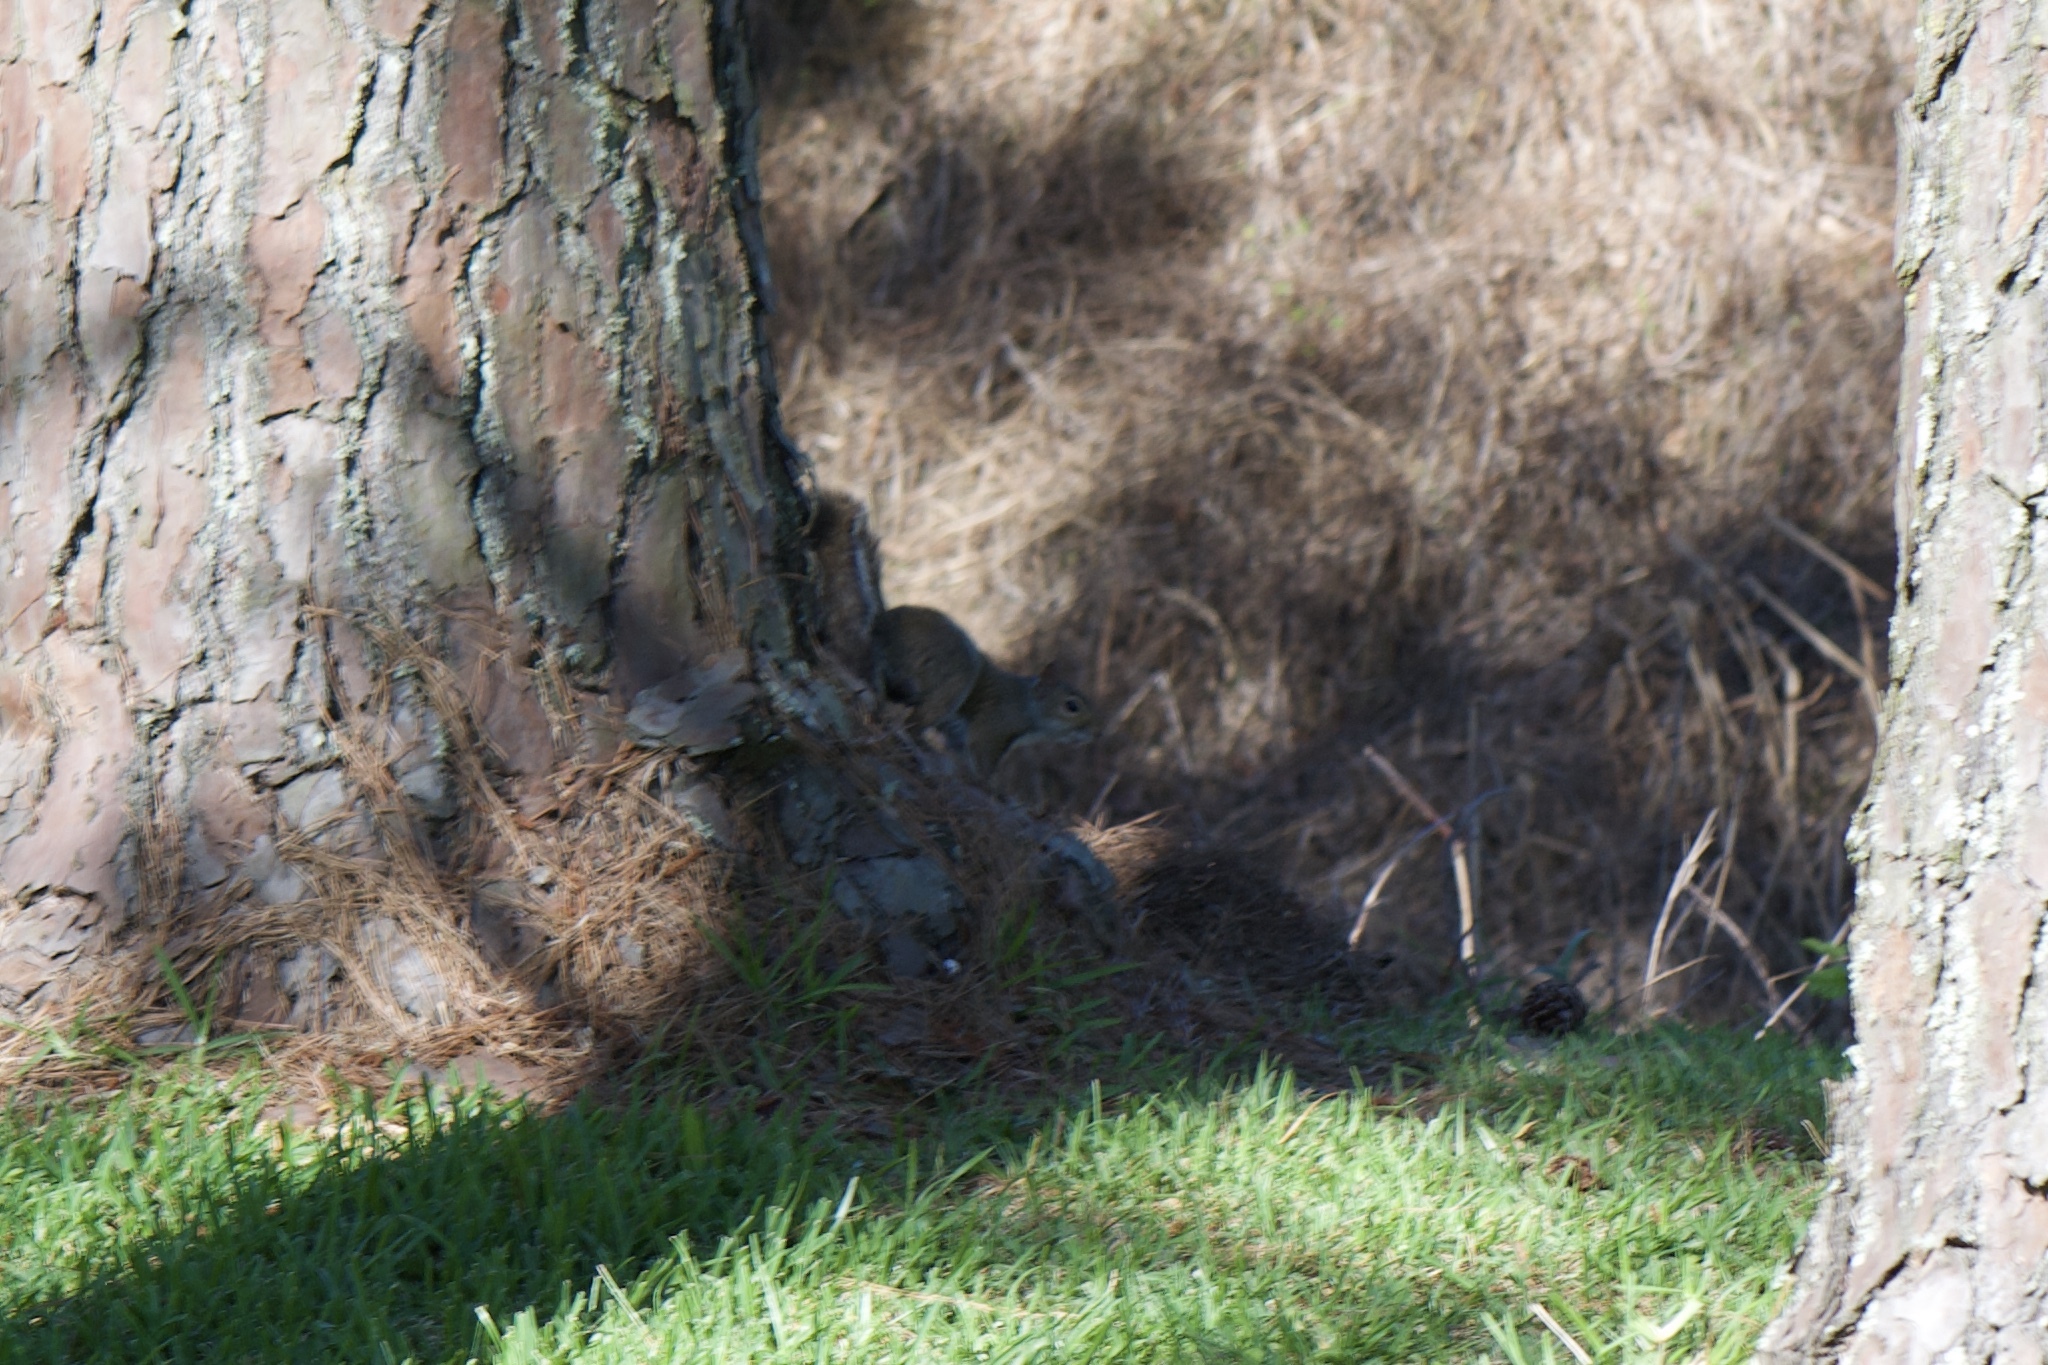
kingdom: Animalia
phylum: Chordata
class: Mammalia
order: Rodentia
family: Sciuridae
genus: Sciurus
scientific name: Sciurus carolinensis
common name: Eastern gray squirrel
